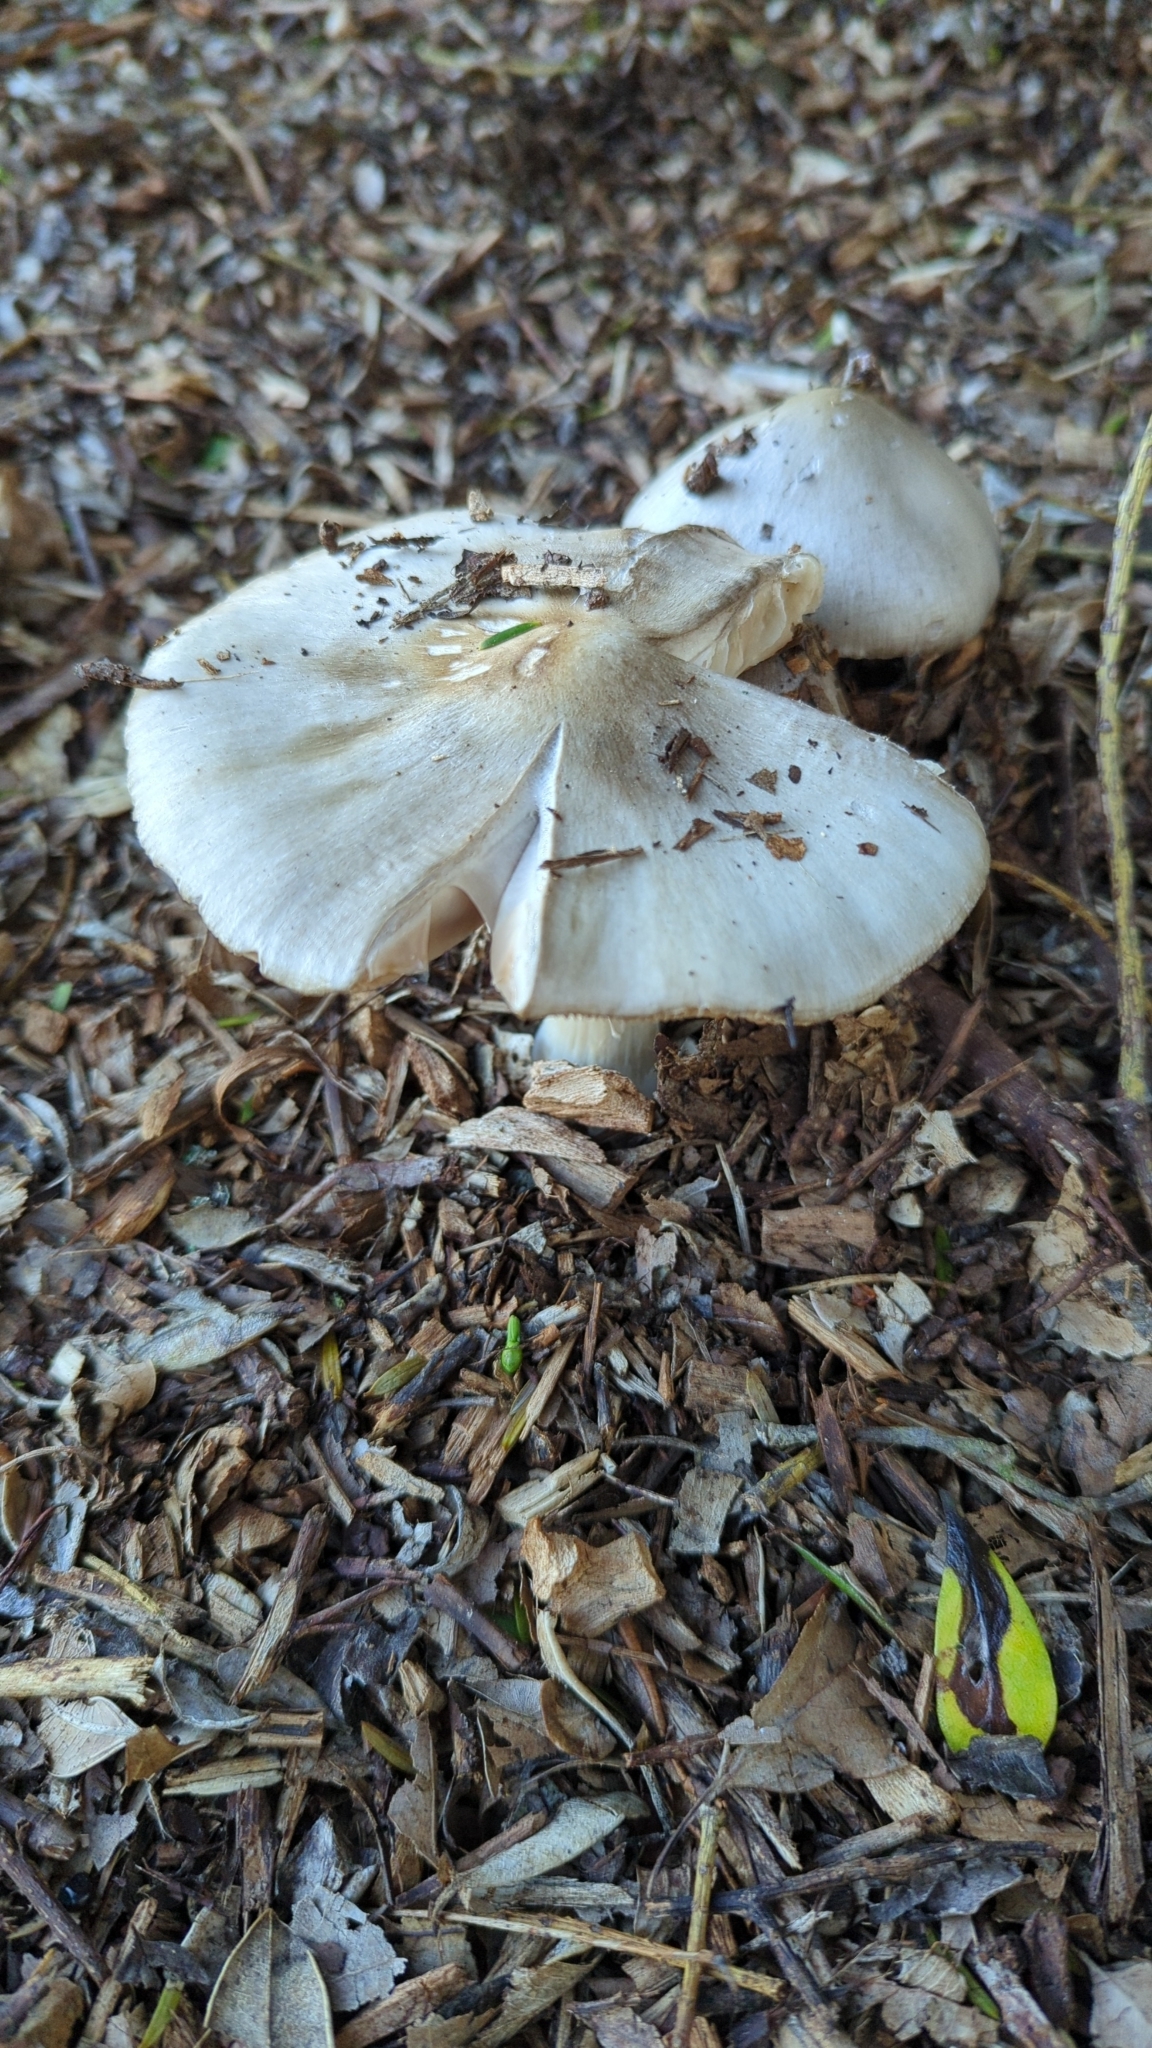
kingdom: Fungi
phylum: Basidiomycota
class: Agaricomycetes
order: Agaricales
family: Pluteaceae
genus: Volvopluteus
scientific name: Volvopluteus gloiocephalus
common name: Stubble rosegill
